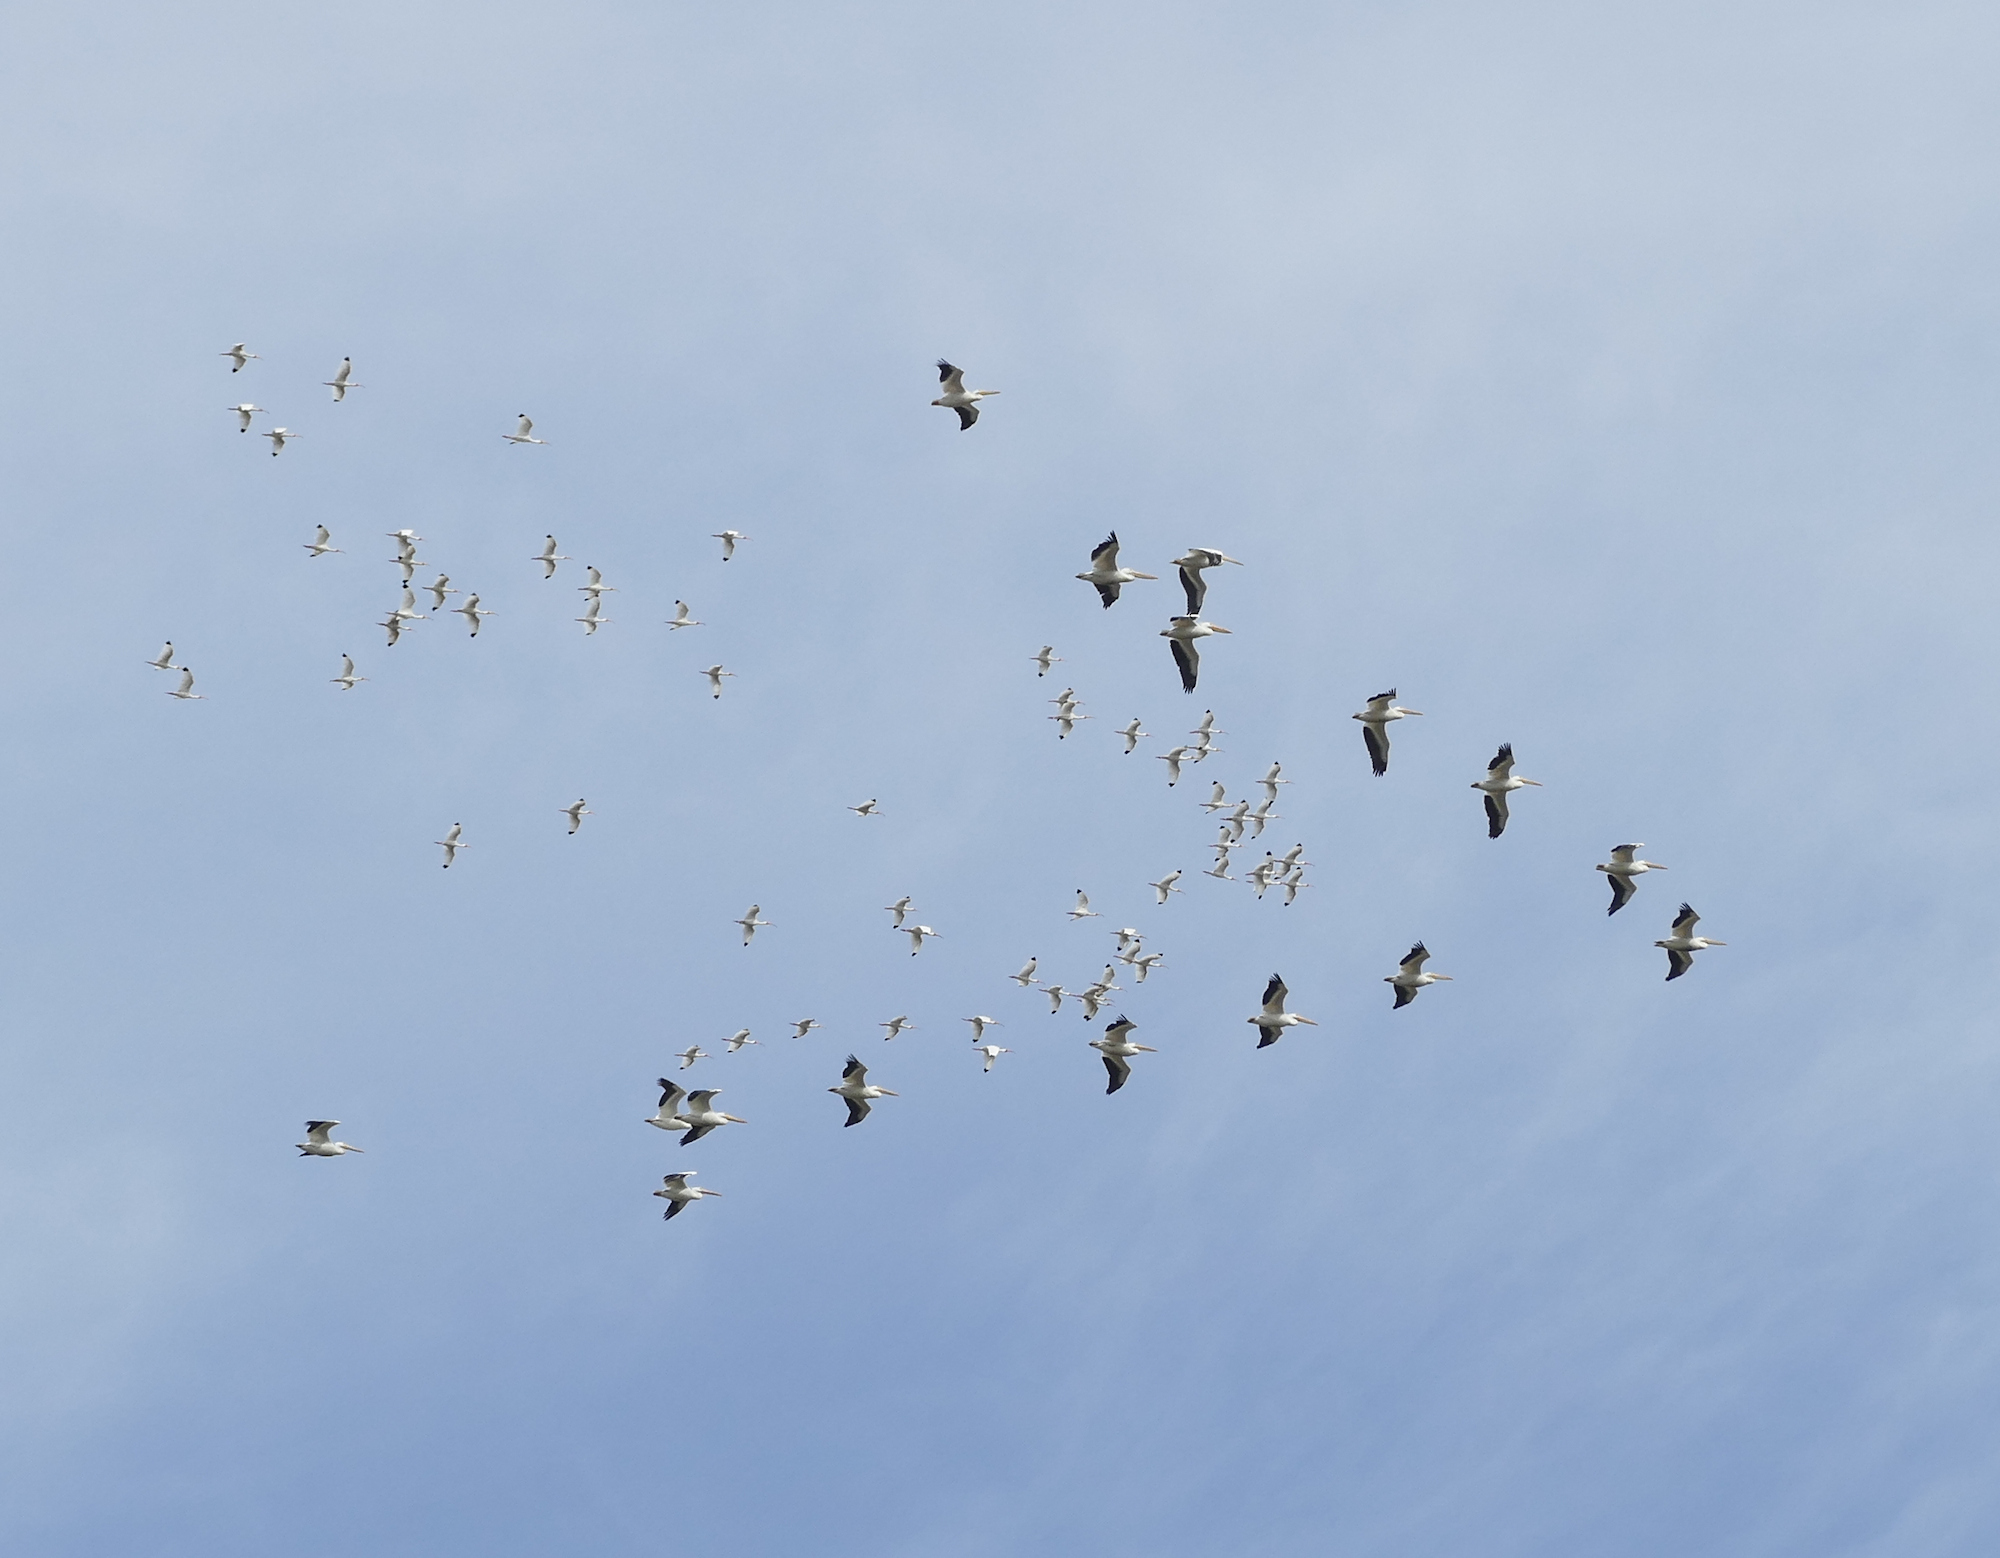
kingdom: Animalia
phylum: Chordata
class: Aves
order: Pelecaniformes
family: Pelecanidae
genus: Pelecanus
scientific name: Pelecanus erythrorhynchos
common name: American white pelican
